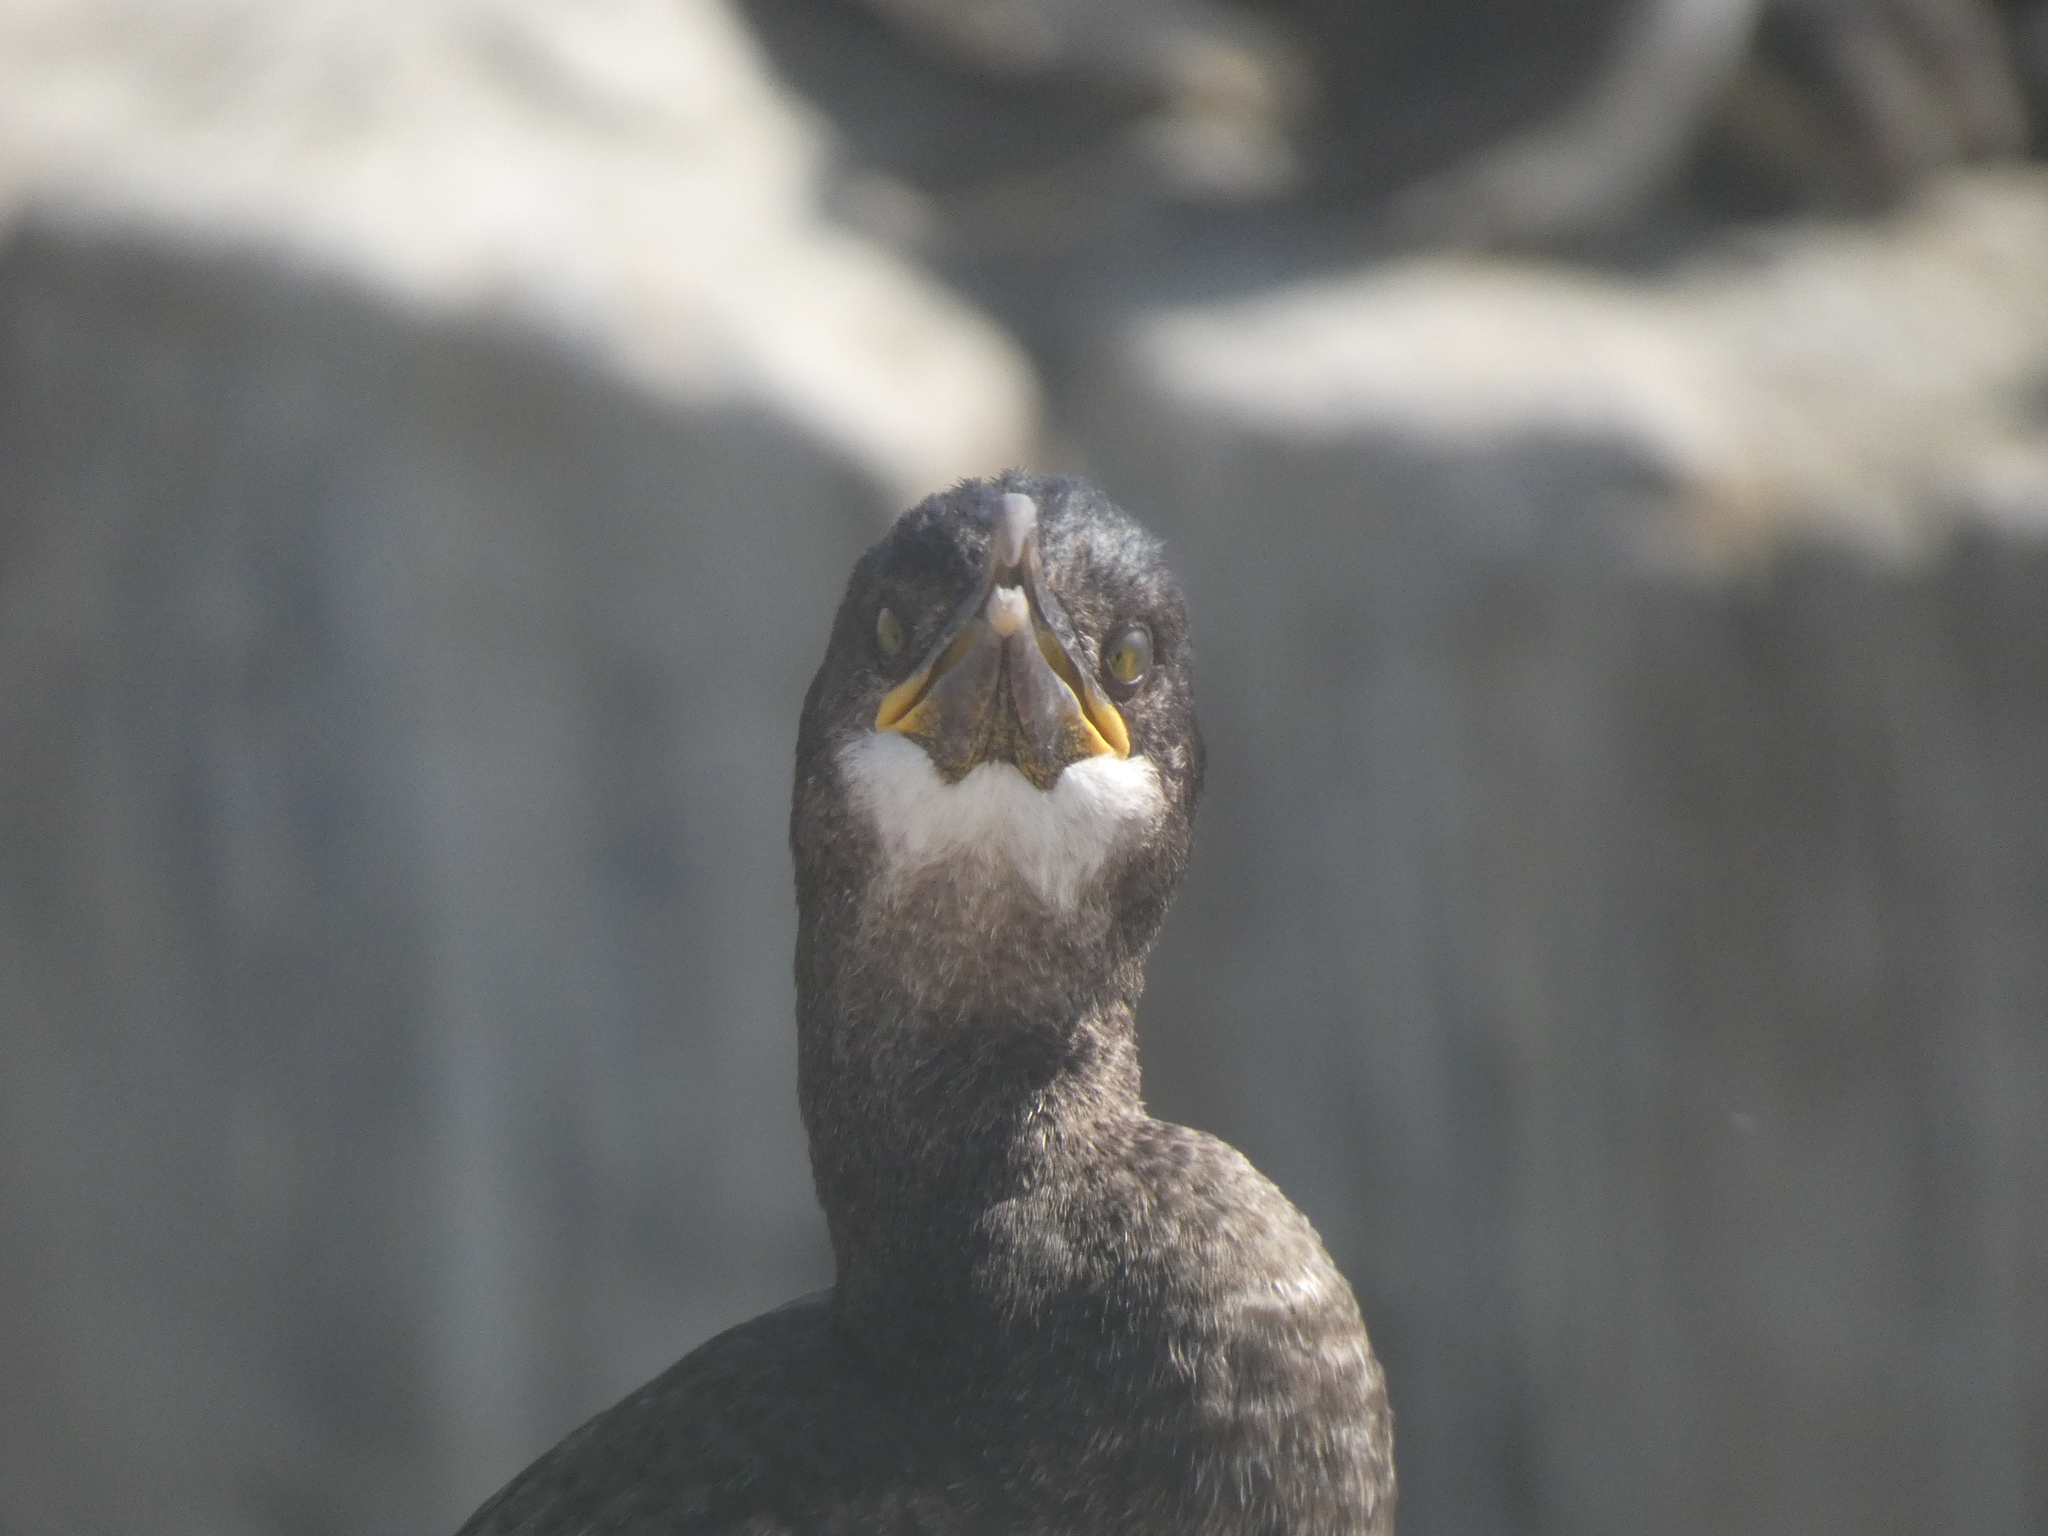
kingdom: Animalia
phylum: Chordata
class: Aves
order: Suliformes
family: Phalacrocoracidae
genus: Phalacrocorax
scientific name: Phalacrocorax aristotelis
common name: European shag
